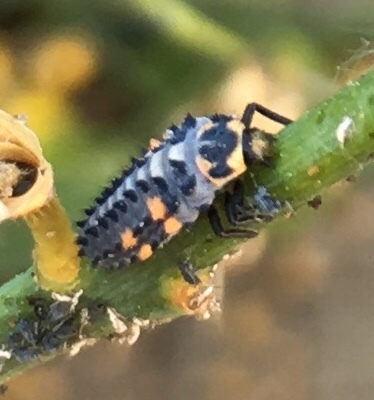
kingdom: Animalia
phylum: Arthropoda
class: Insecta
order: Coleoptera
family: Coccinellidae
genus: Coccinella
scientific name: Coccinella septempunctata
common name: Sevenspotted lady beetle
